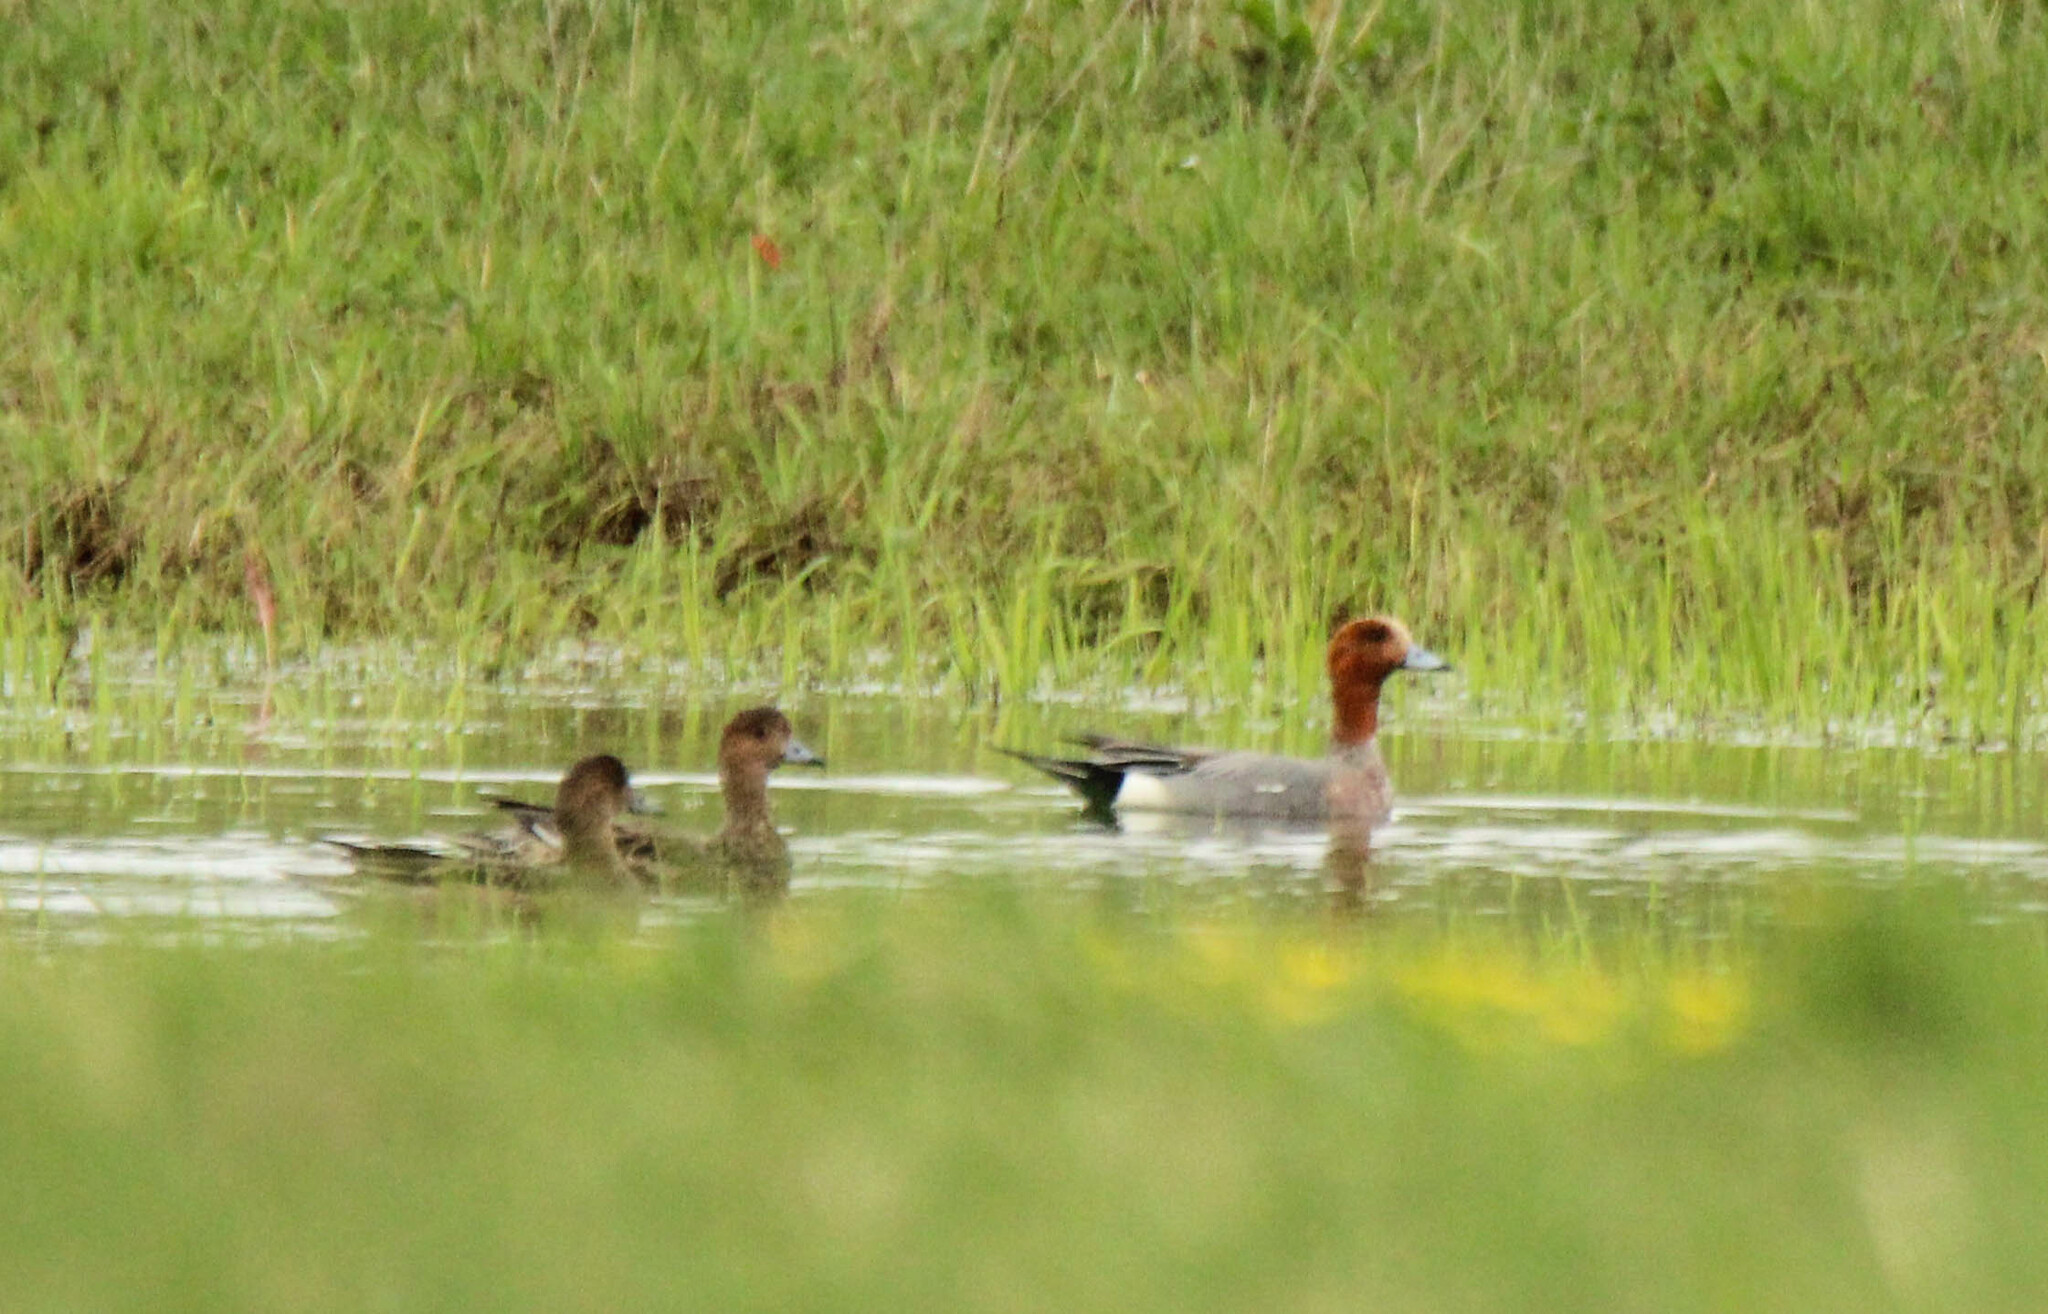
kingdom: Animalia
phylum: Chordata
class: Aves
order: Anseriformes
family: Anatidae
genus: Mareca
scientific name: Mareca penelope
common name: Eurasian wigeon
